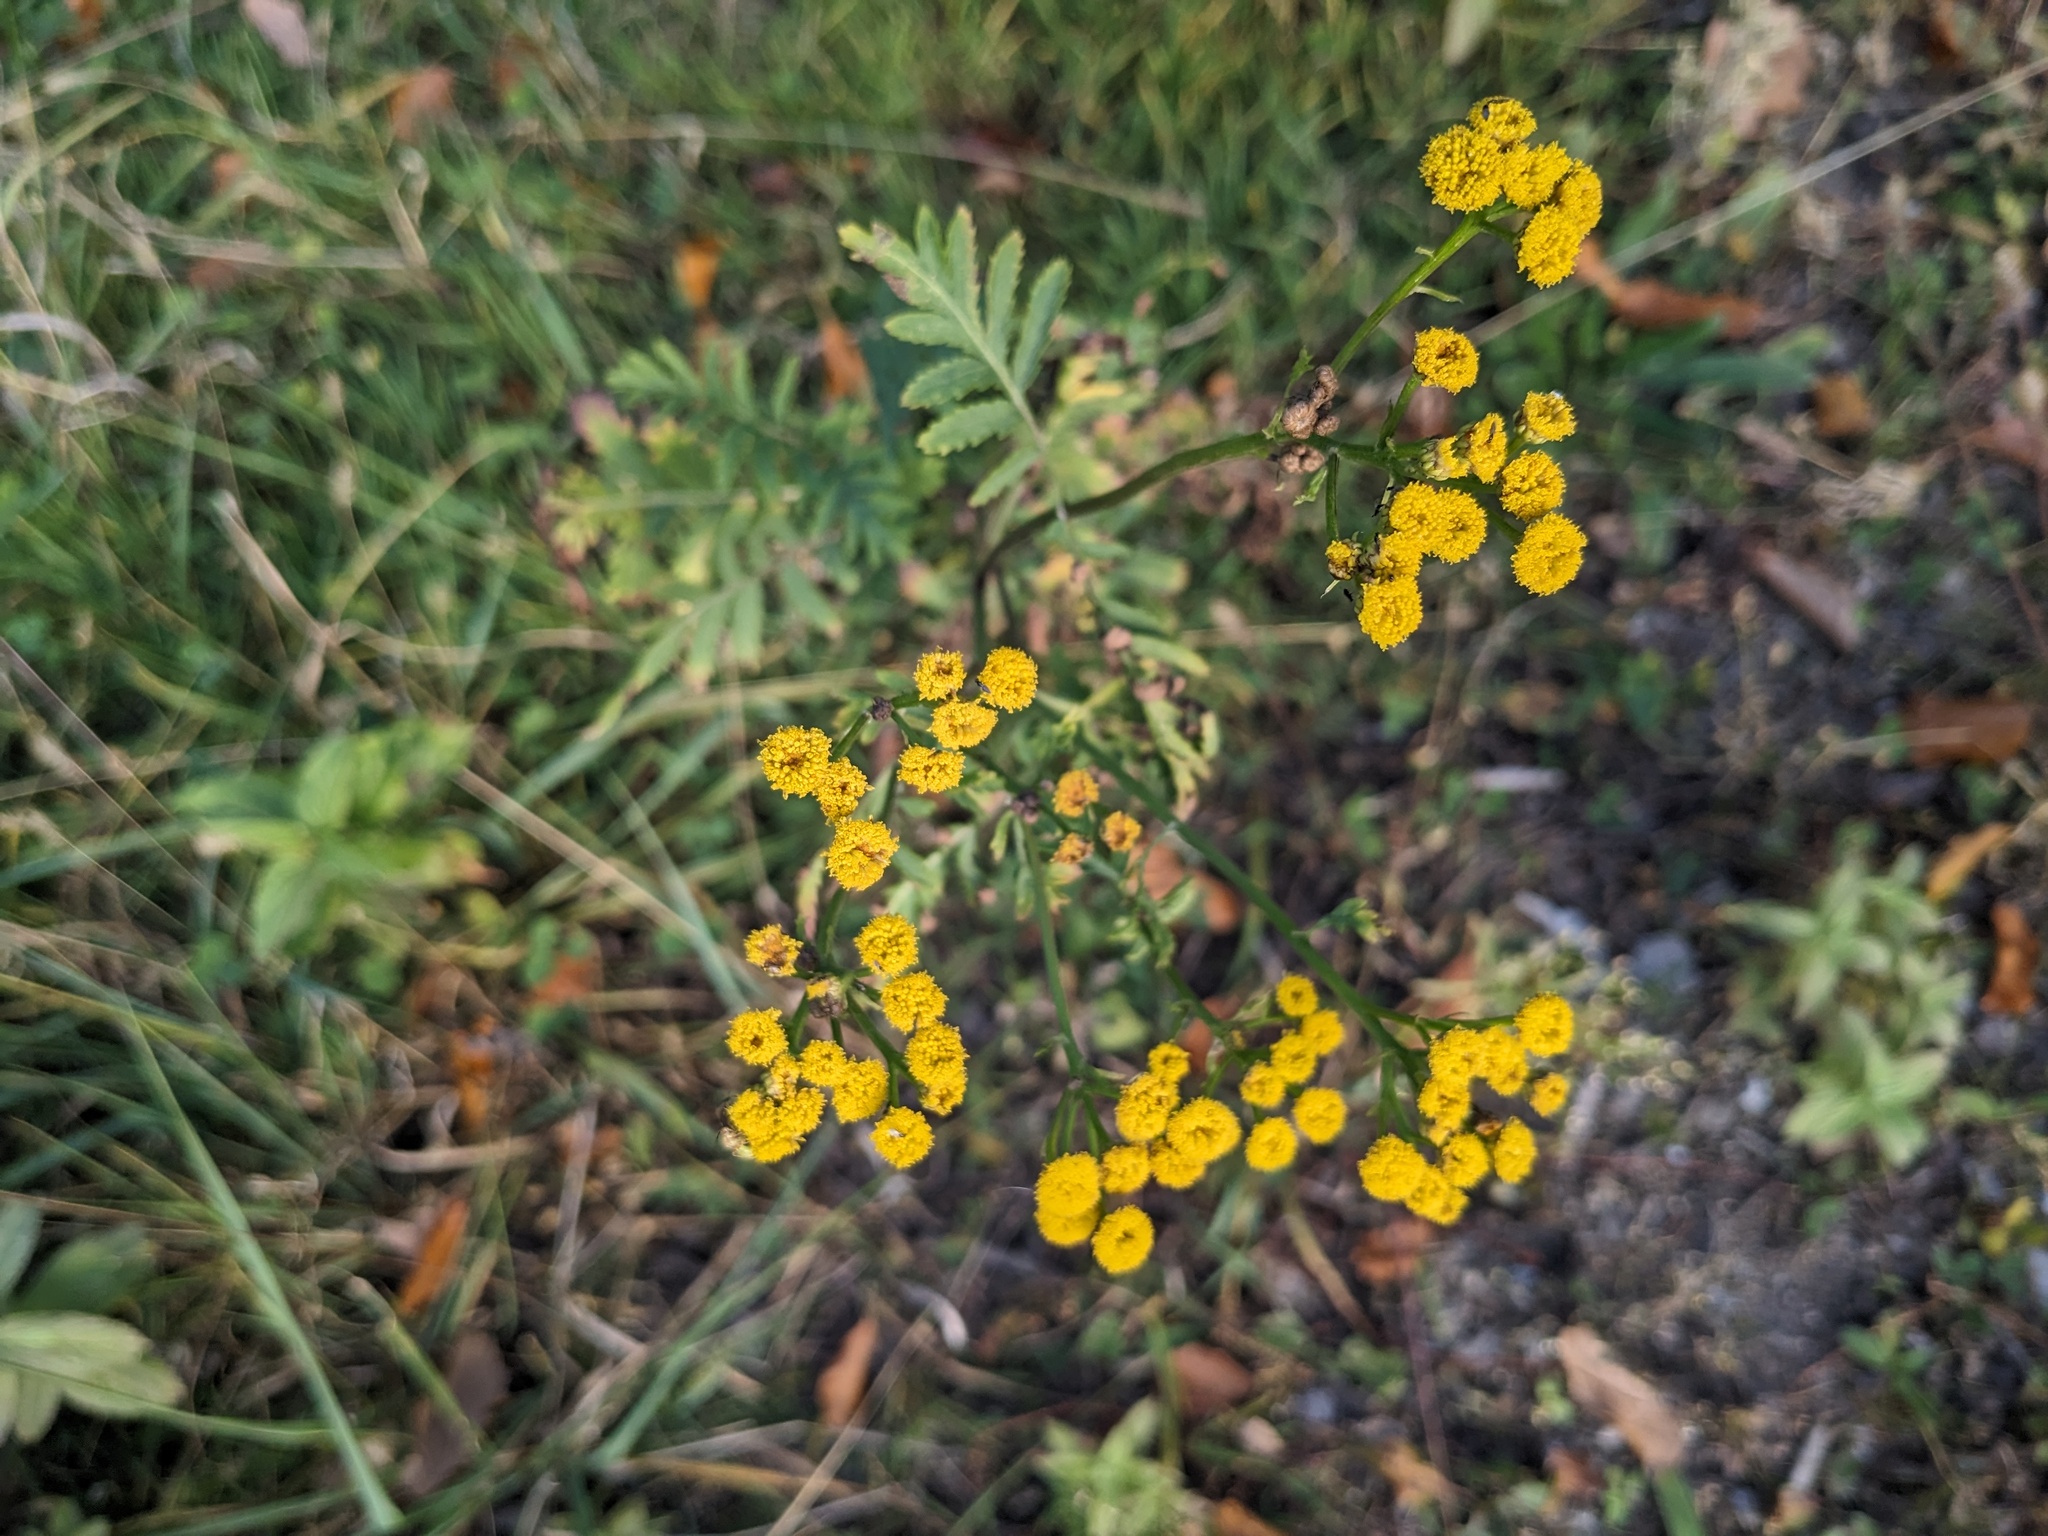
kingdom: Plantae
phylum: Tracheophyta
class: Magnoliopsida
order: Asterales
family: Asteraceae
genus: Tanacetum
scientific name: Tanacetum vulgare
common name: Common tansy
